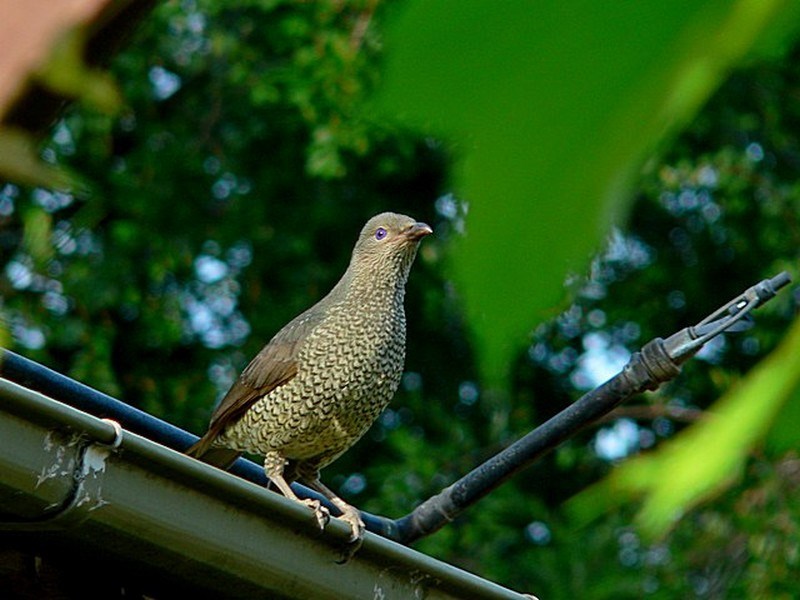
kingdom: Animalia
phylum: Chordata
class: Aves
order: Passeriformes
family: Ptilonorhynchidae
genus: Ptilonorhynchus
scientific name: Ptilonorhynchus violaceus
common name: Satin bowerbird
